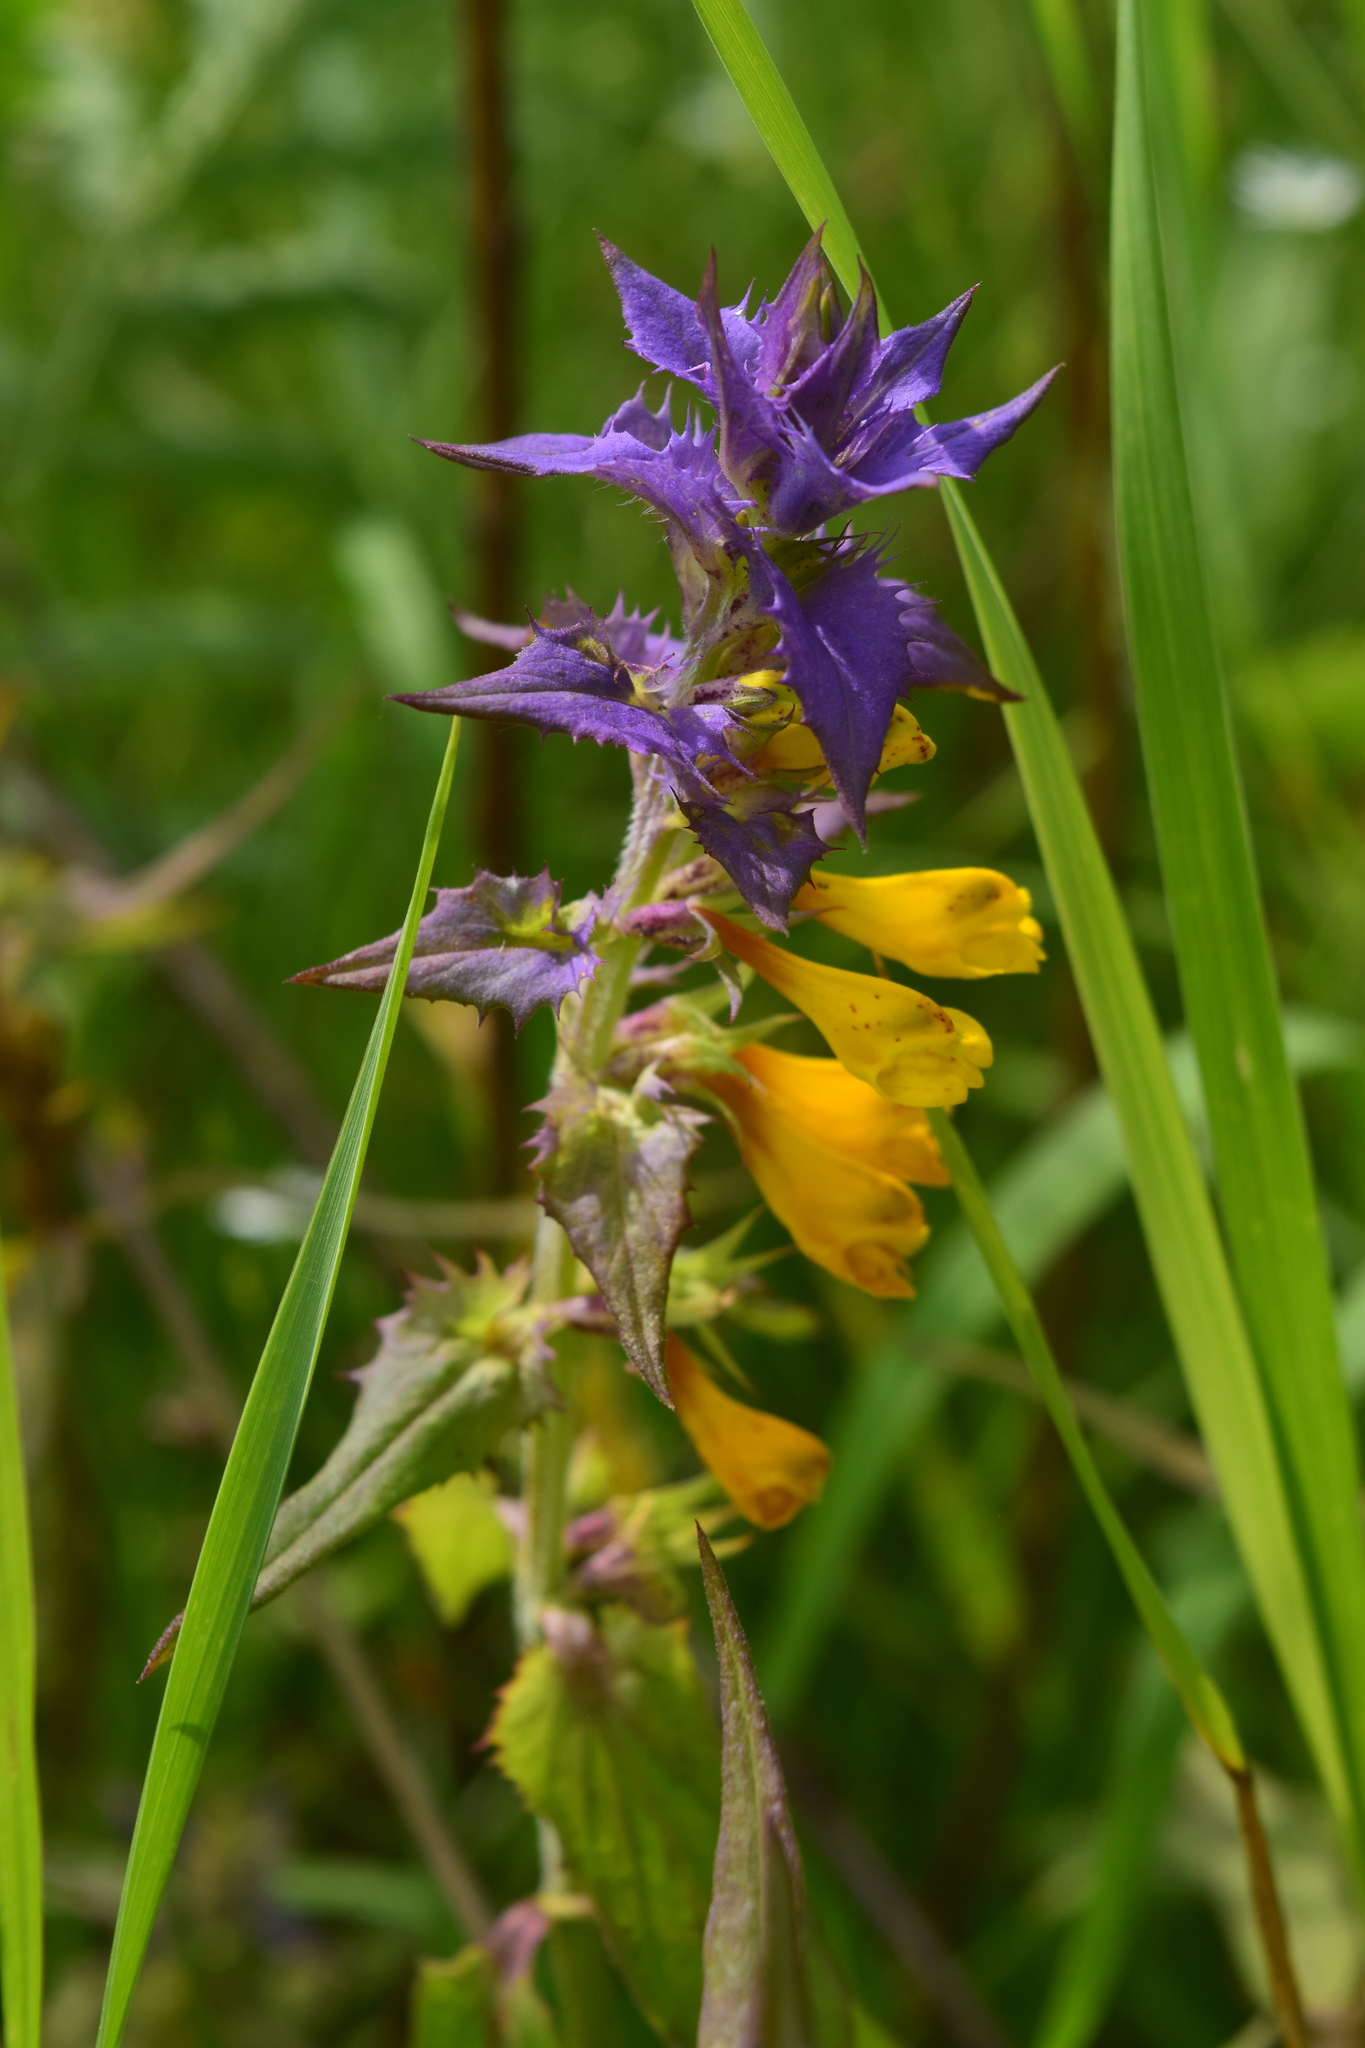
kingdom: Plantae
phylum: Tracheophyta
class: Magnoliopsida
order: Lamiales
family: Orobanchaceae
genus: Melampyrum
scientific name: Melampyrum nemorosum
